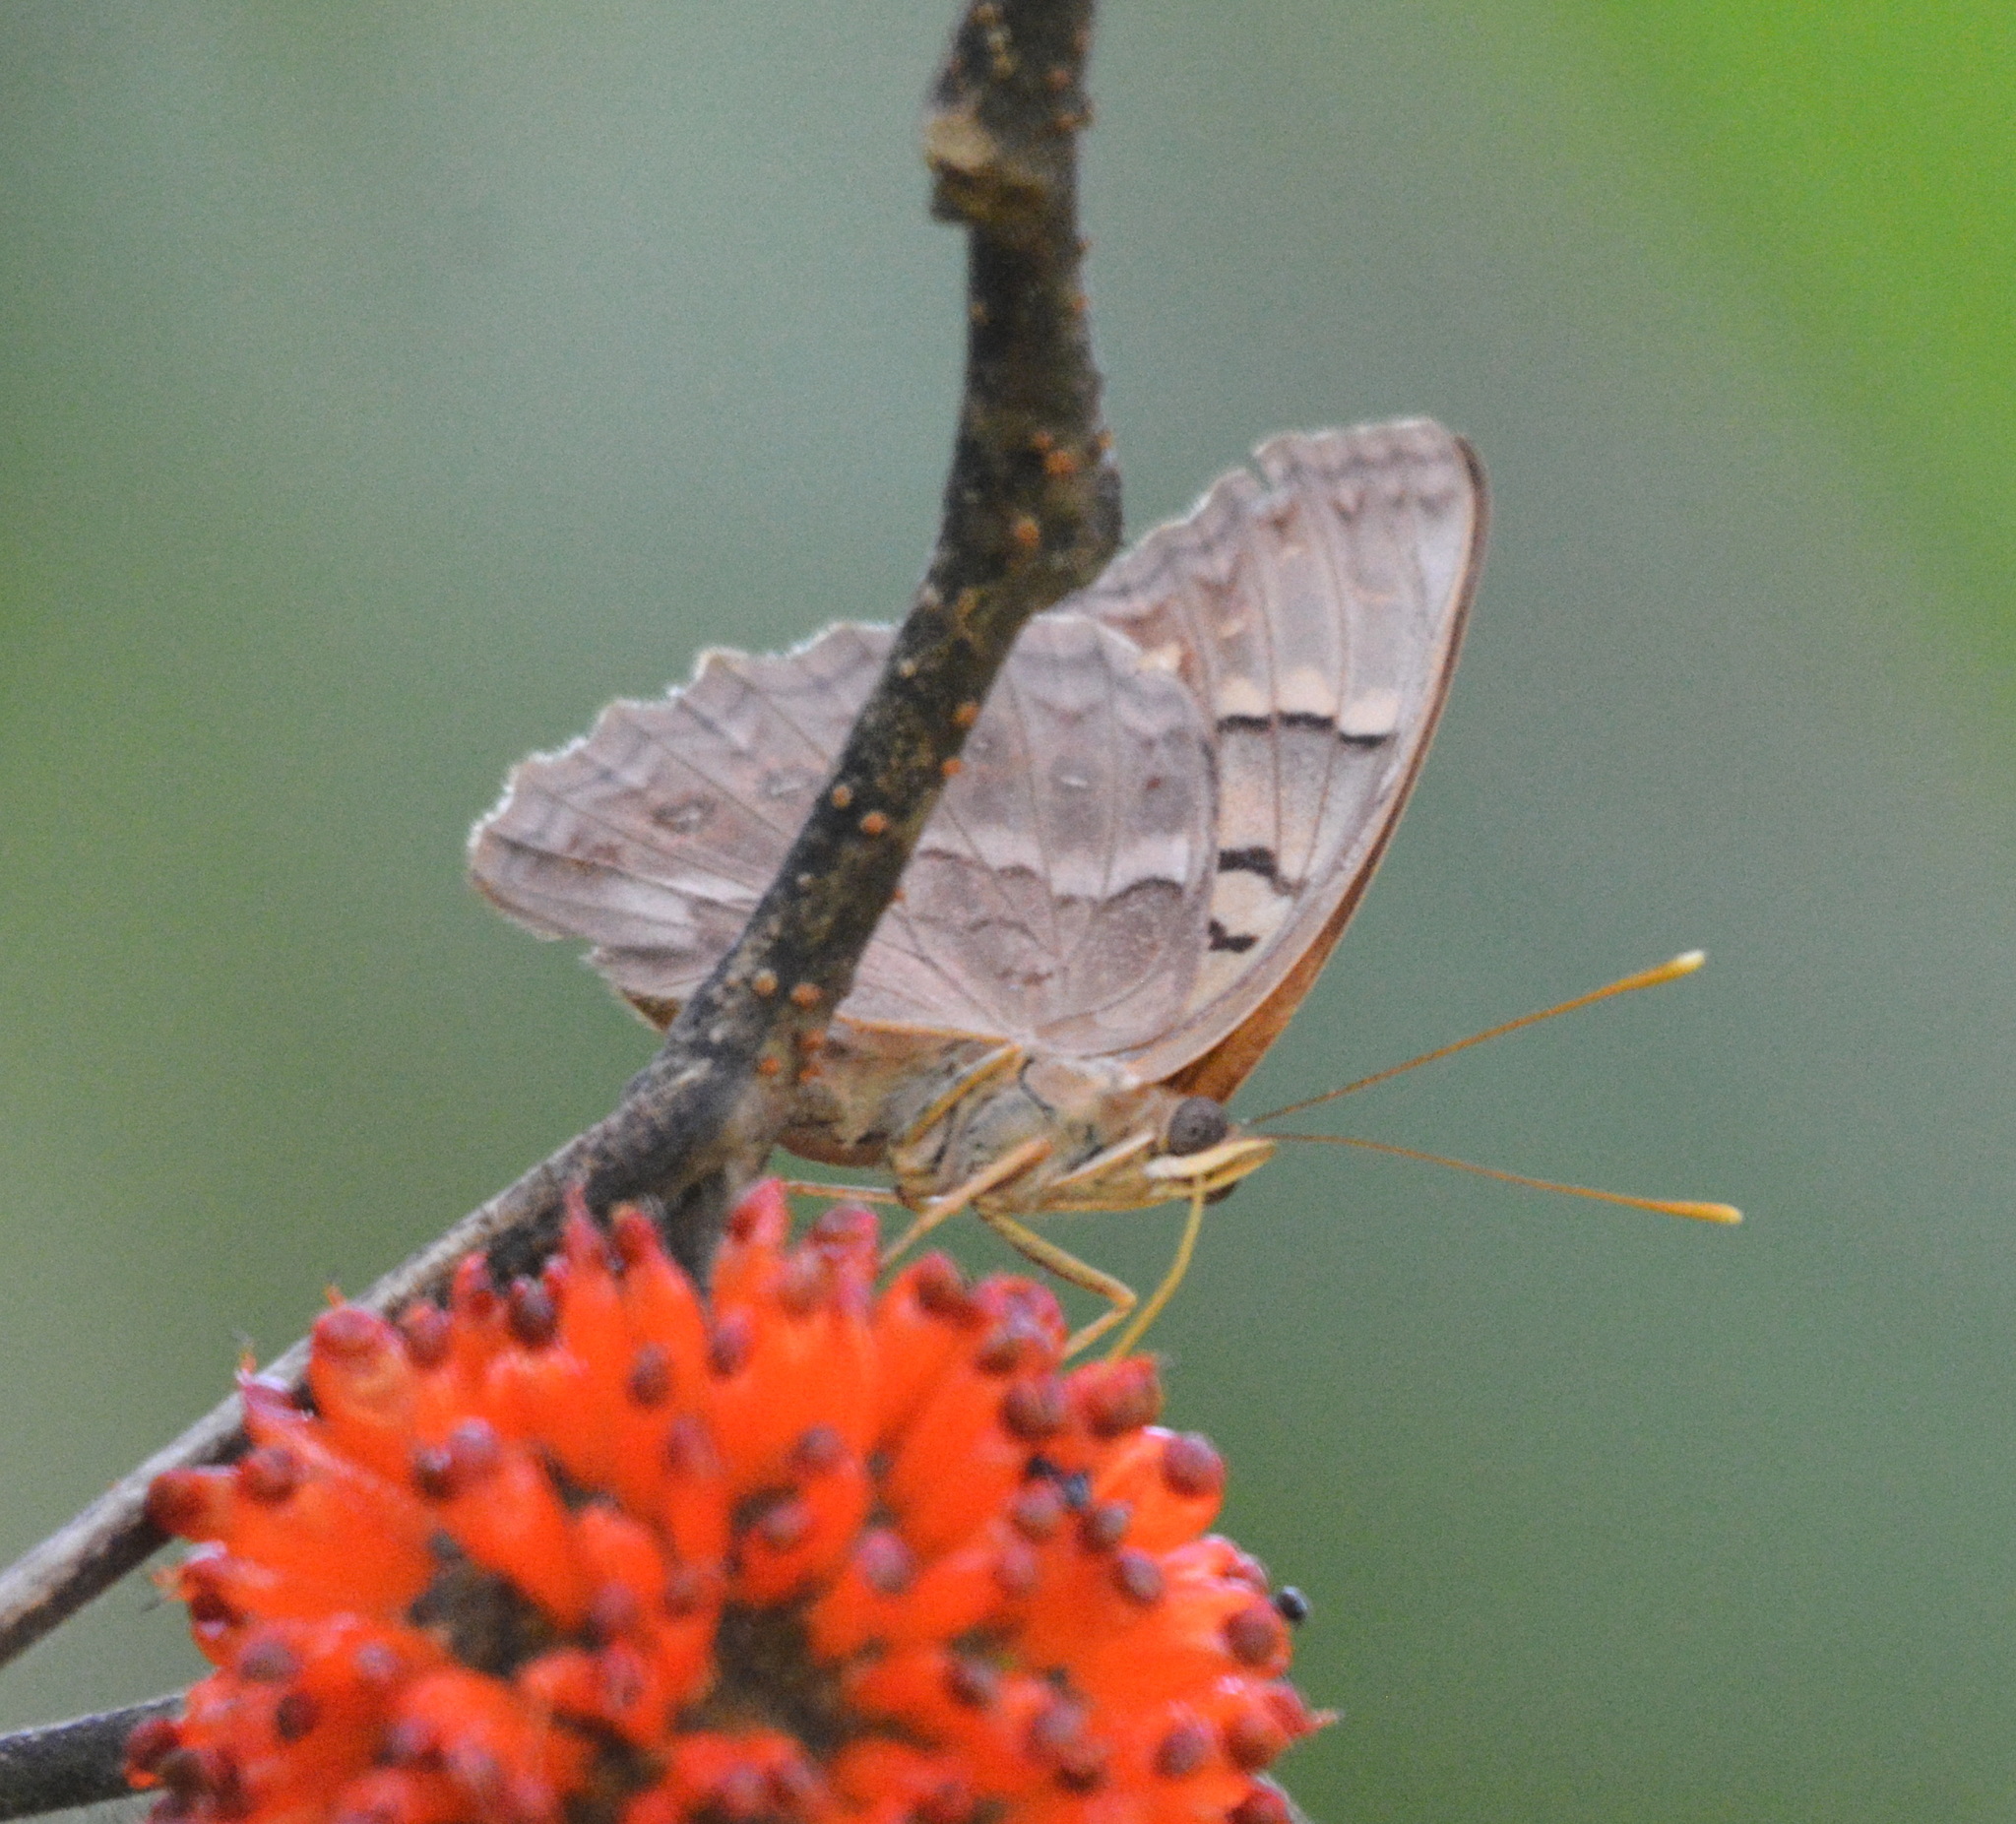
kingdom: Animalia
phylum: Arthropoda
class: Insecta
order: Lepidoptera
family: Nymphalidae
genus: Asterocampa
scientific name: Asterocampa clyton
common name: Tawny emperor
